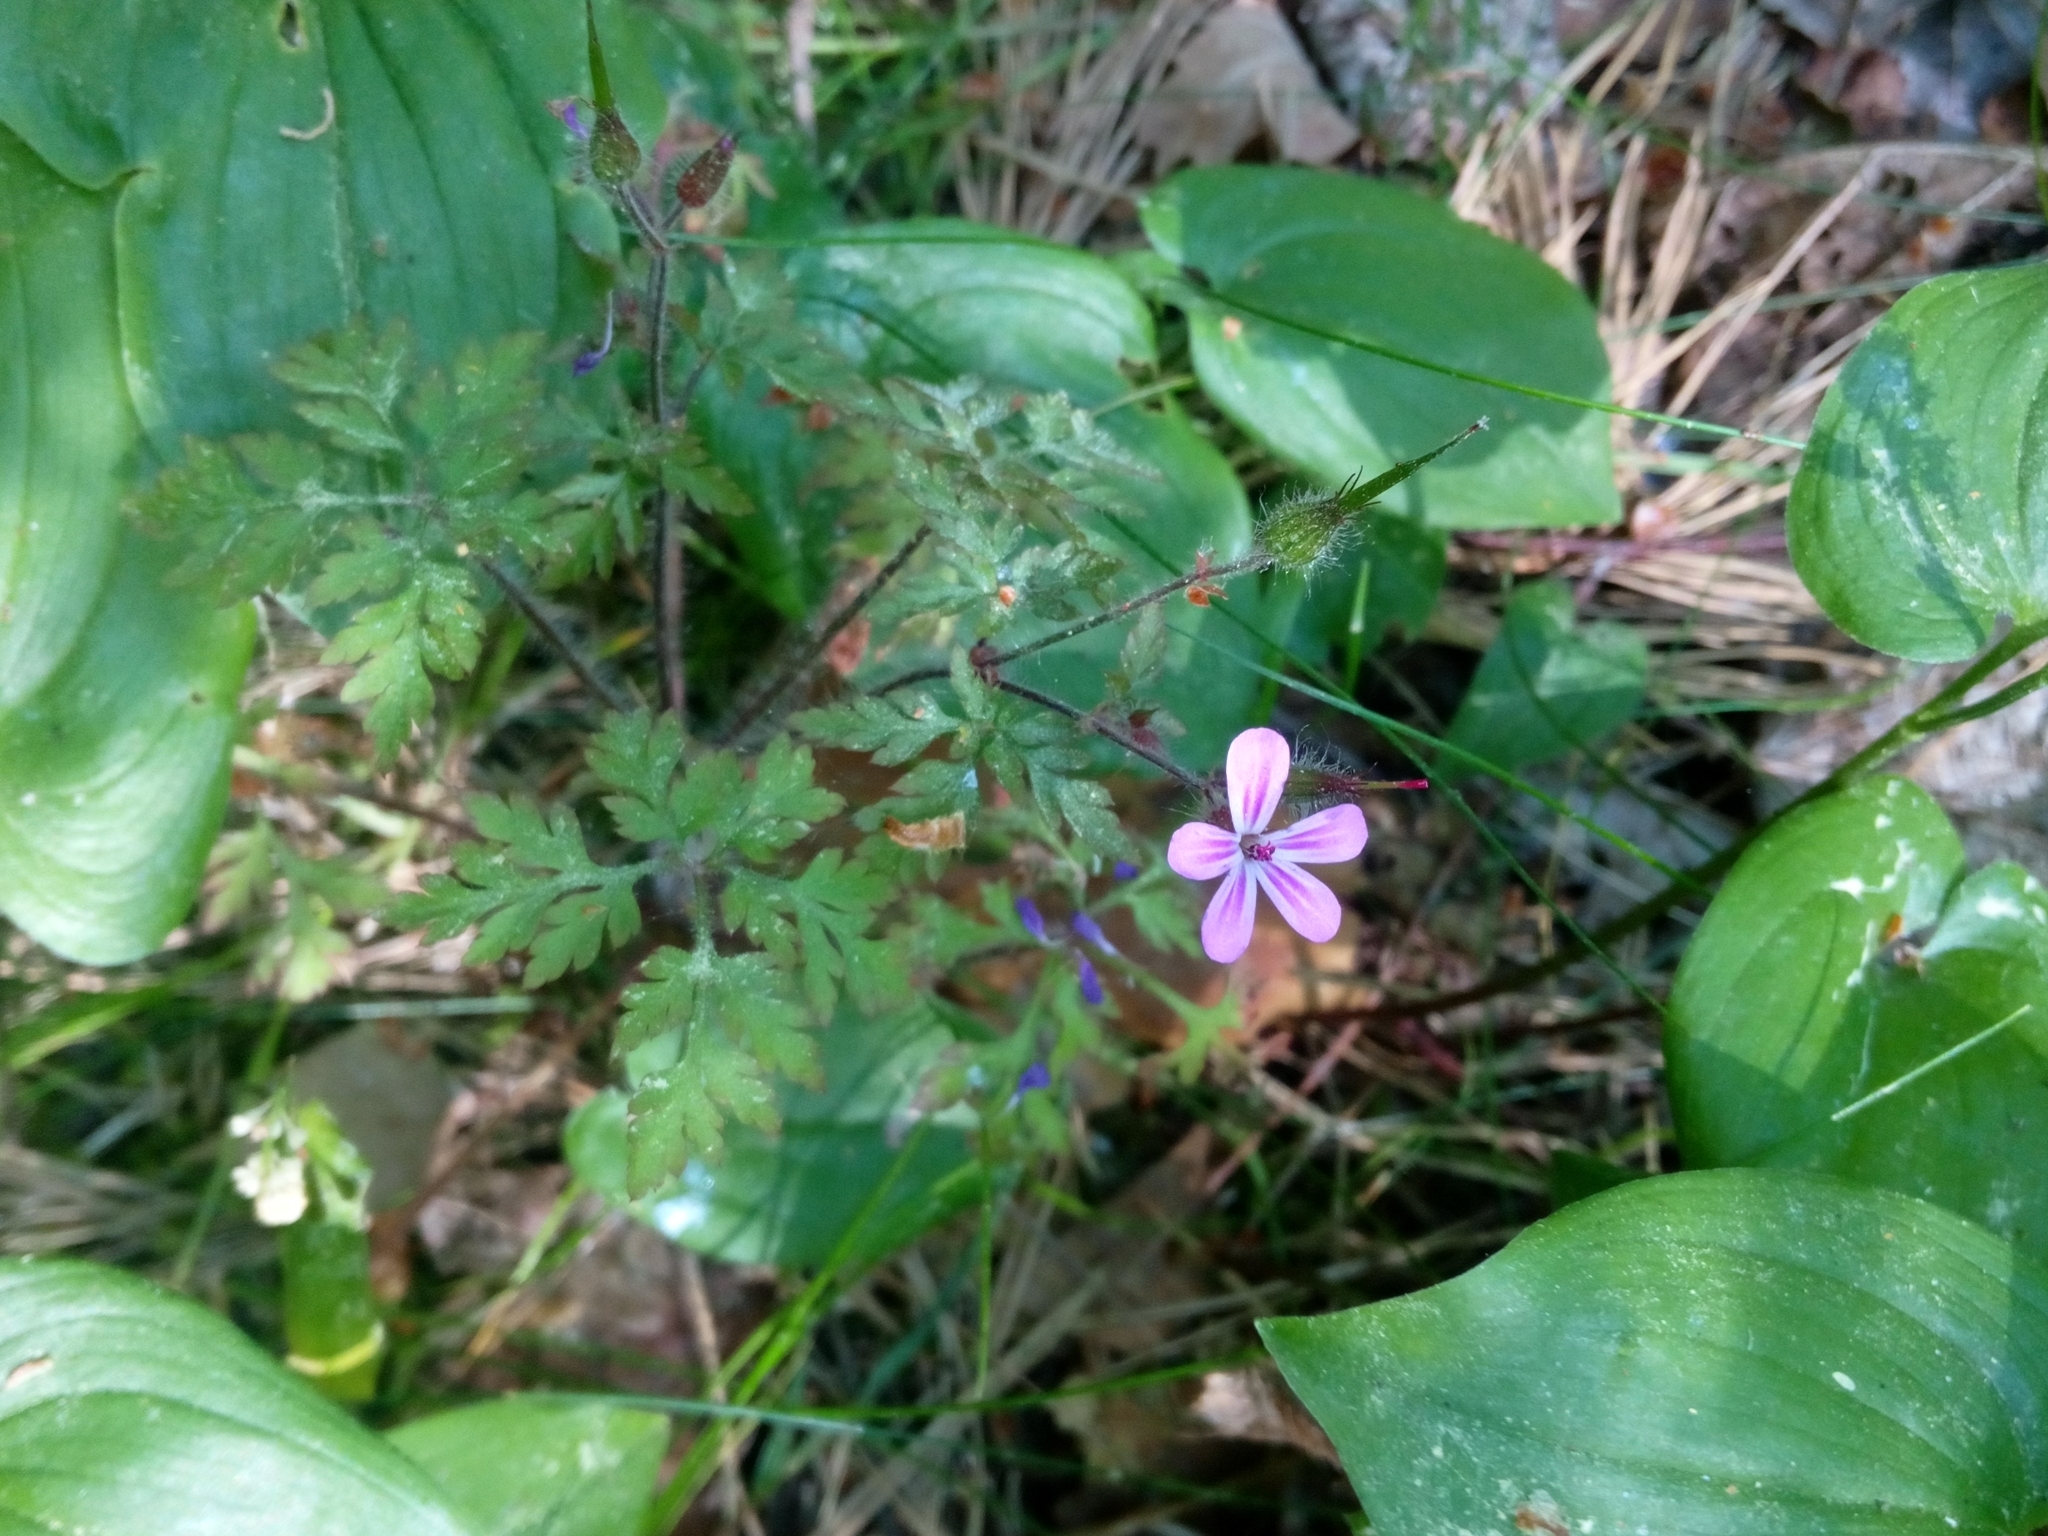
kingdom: Plantae
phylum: Tracheophyta
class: Magnoliopsida
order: Geraniales
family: Geraniaceae
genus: Geranium
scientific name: Geranium robertianum
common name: Herb-robert
